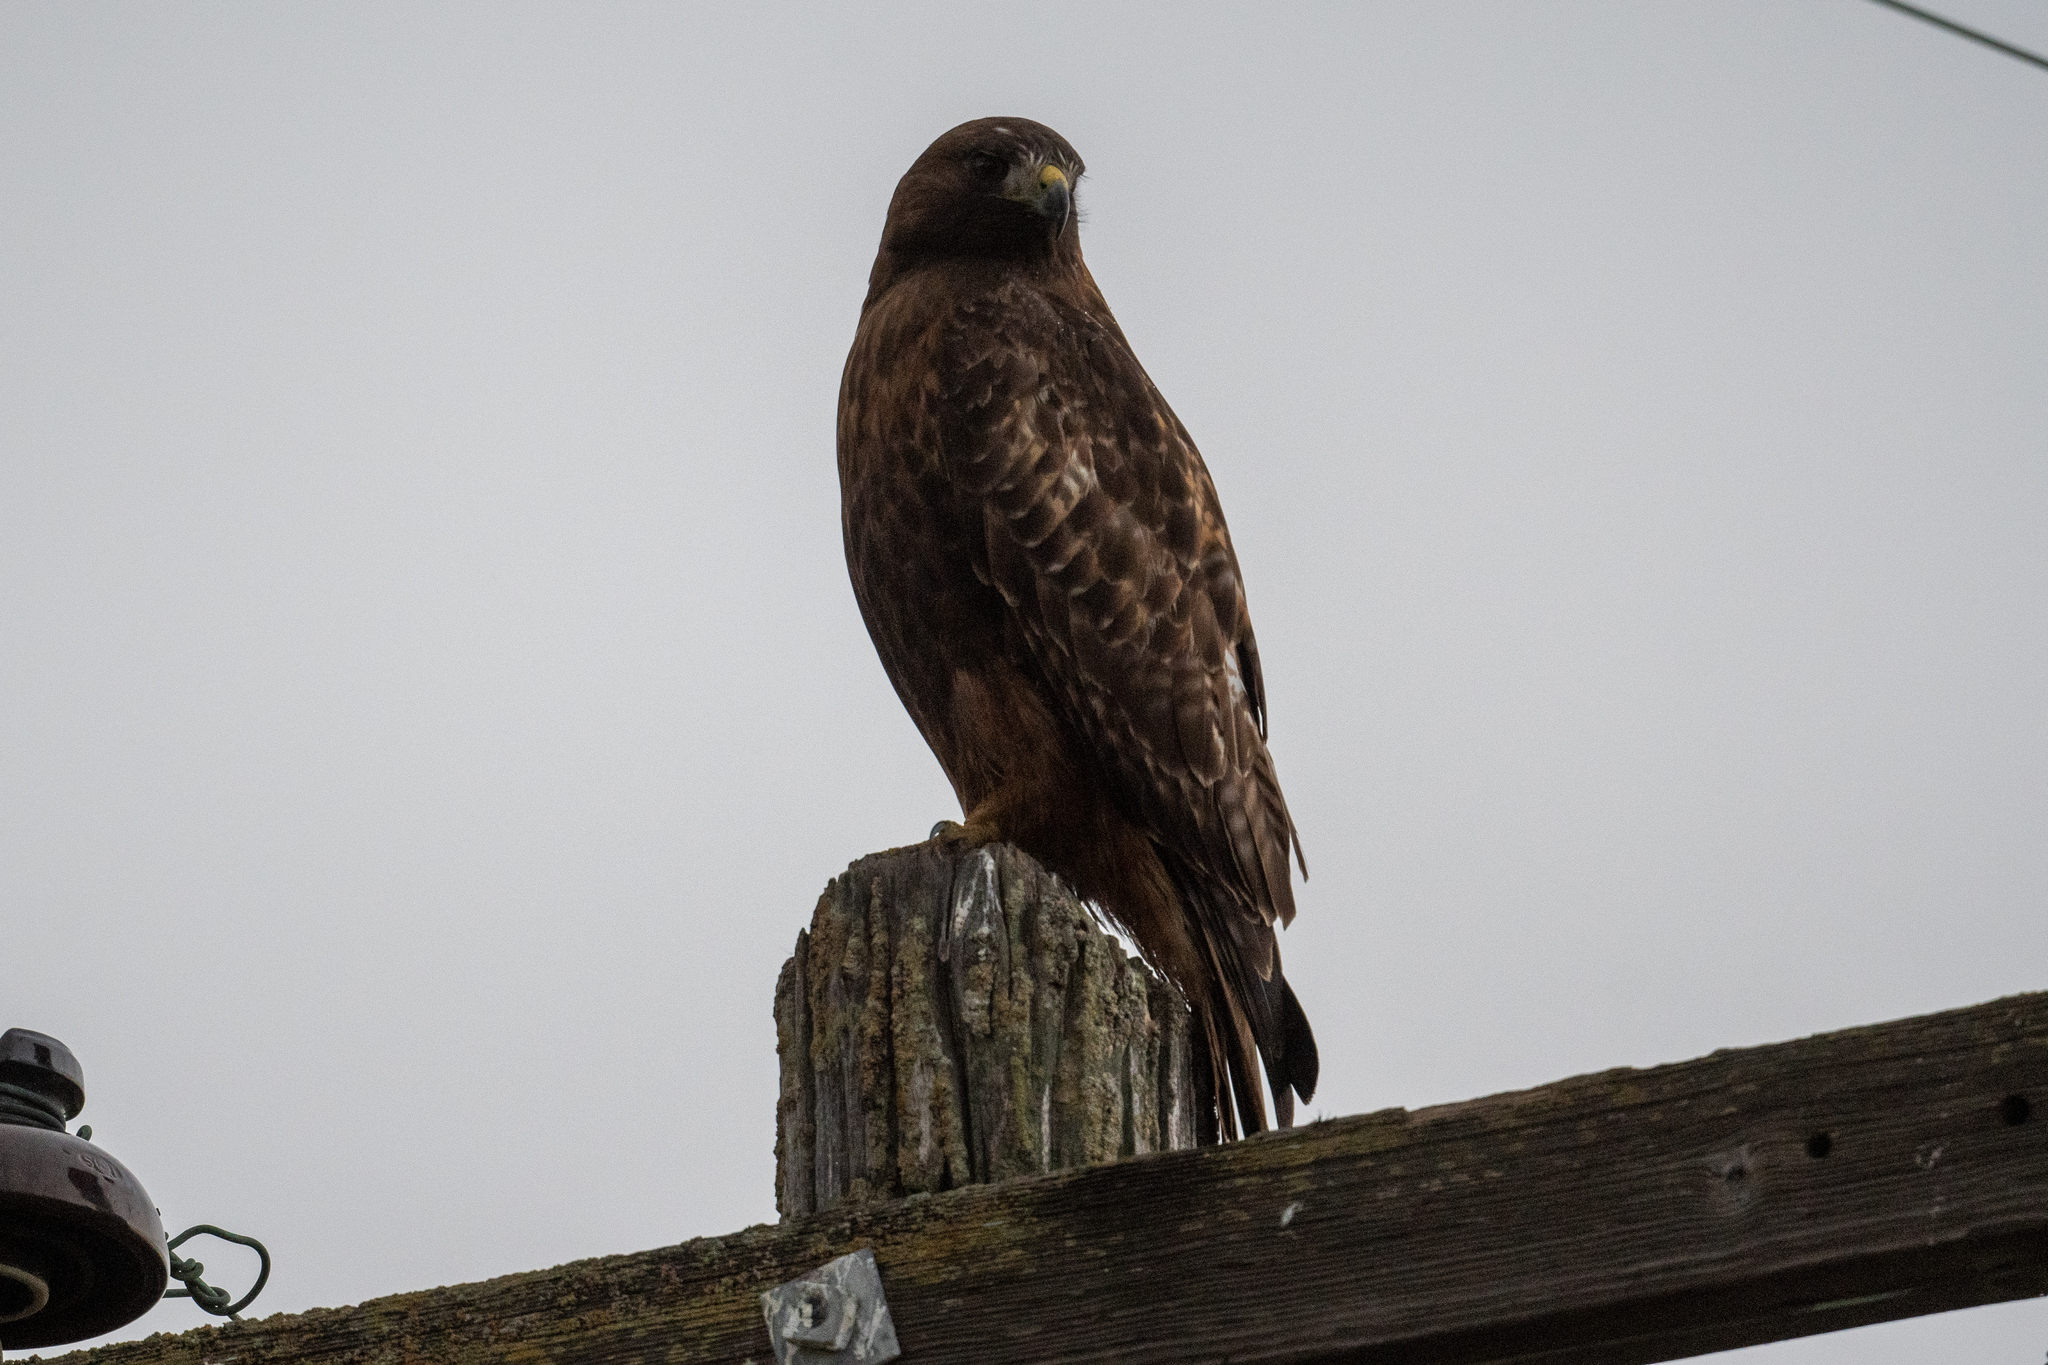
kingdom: Animalia
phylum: Chordata
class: Aves
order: Accipitriformes
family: Accipitridae
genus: Buteo
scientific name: Buteo jamaicensis
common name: Red-tailed hawk
